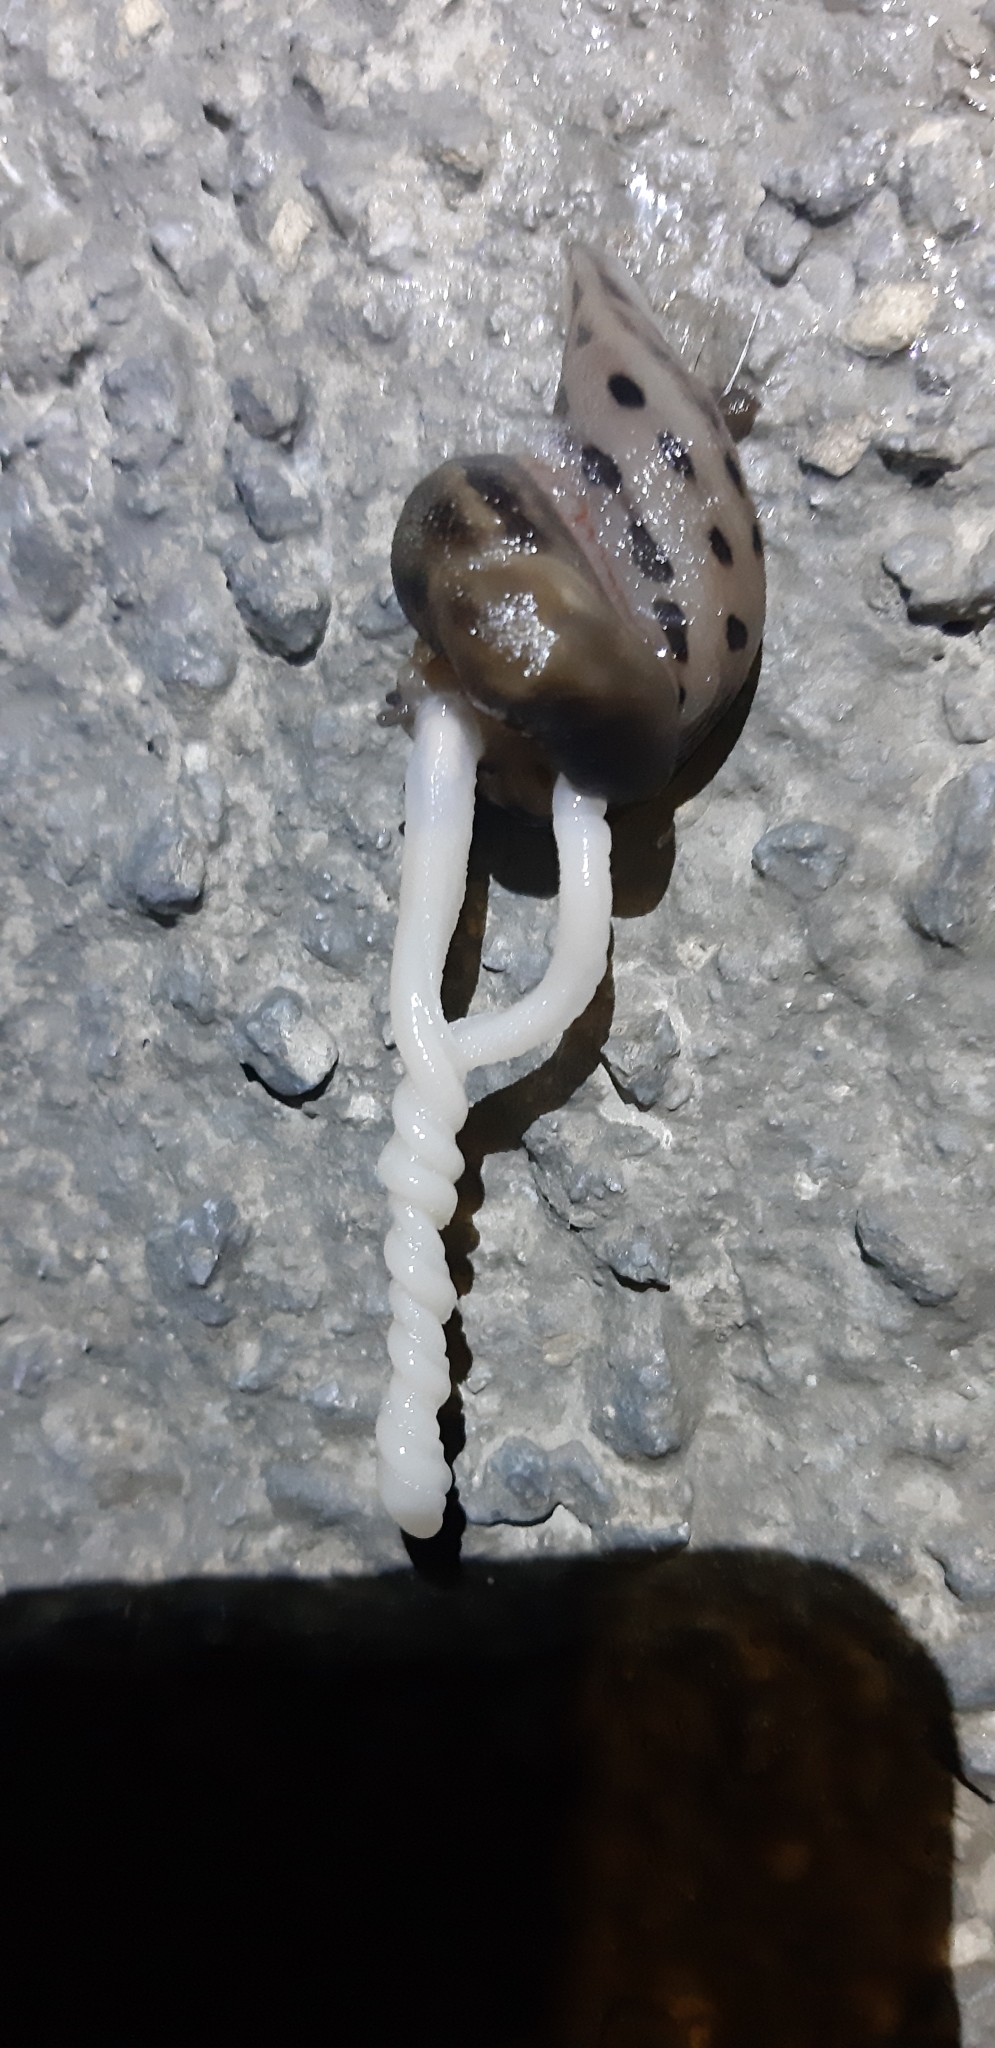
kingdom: Animalia
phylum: Mollusca
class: Gastropoda
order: Stylommatophora
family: Limacidae
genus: Limax
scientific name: Limax corsicus
